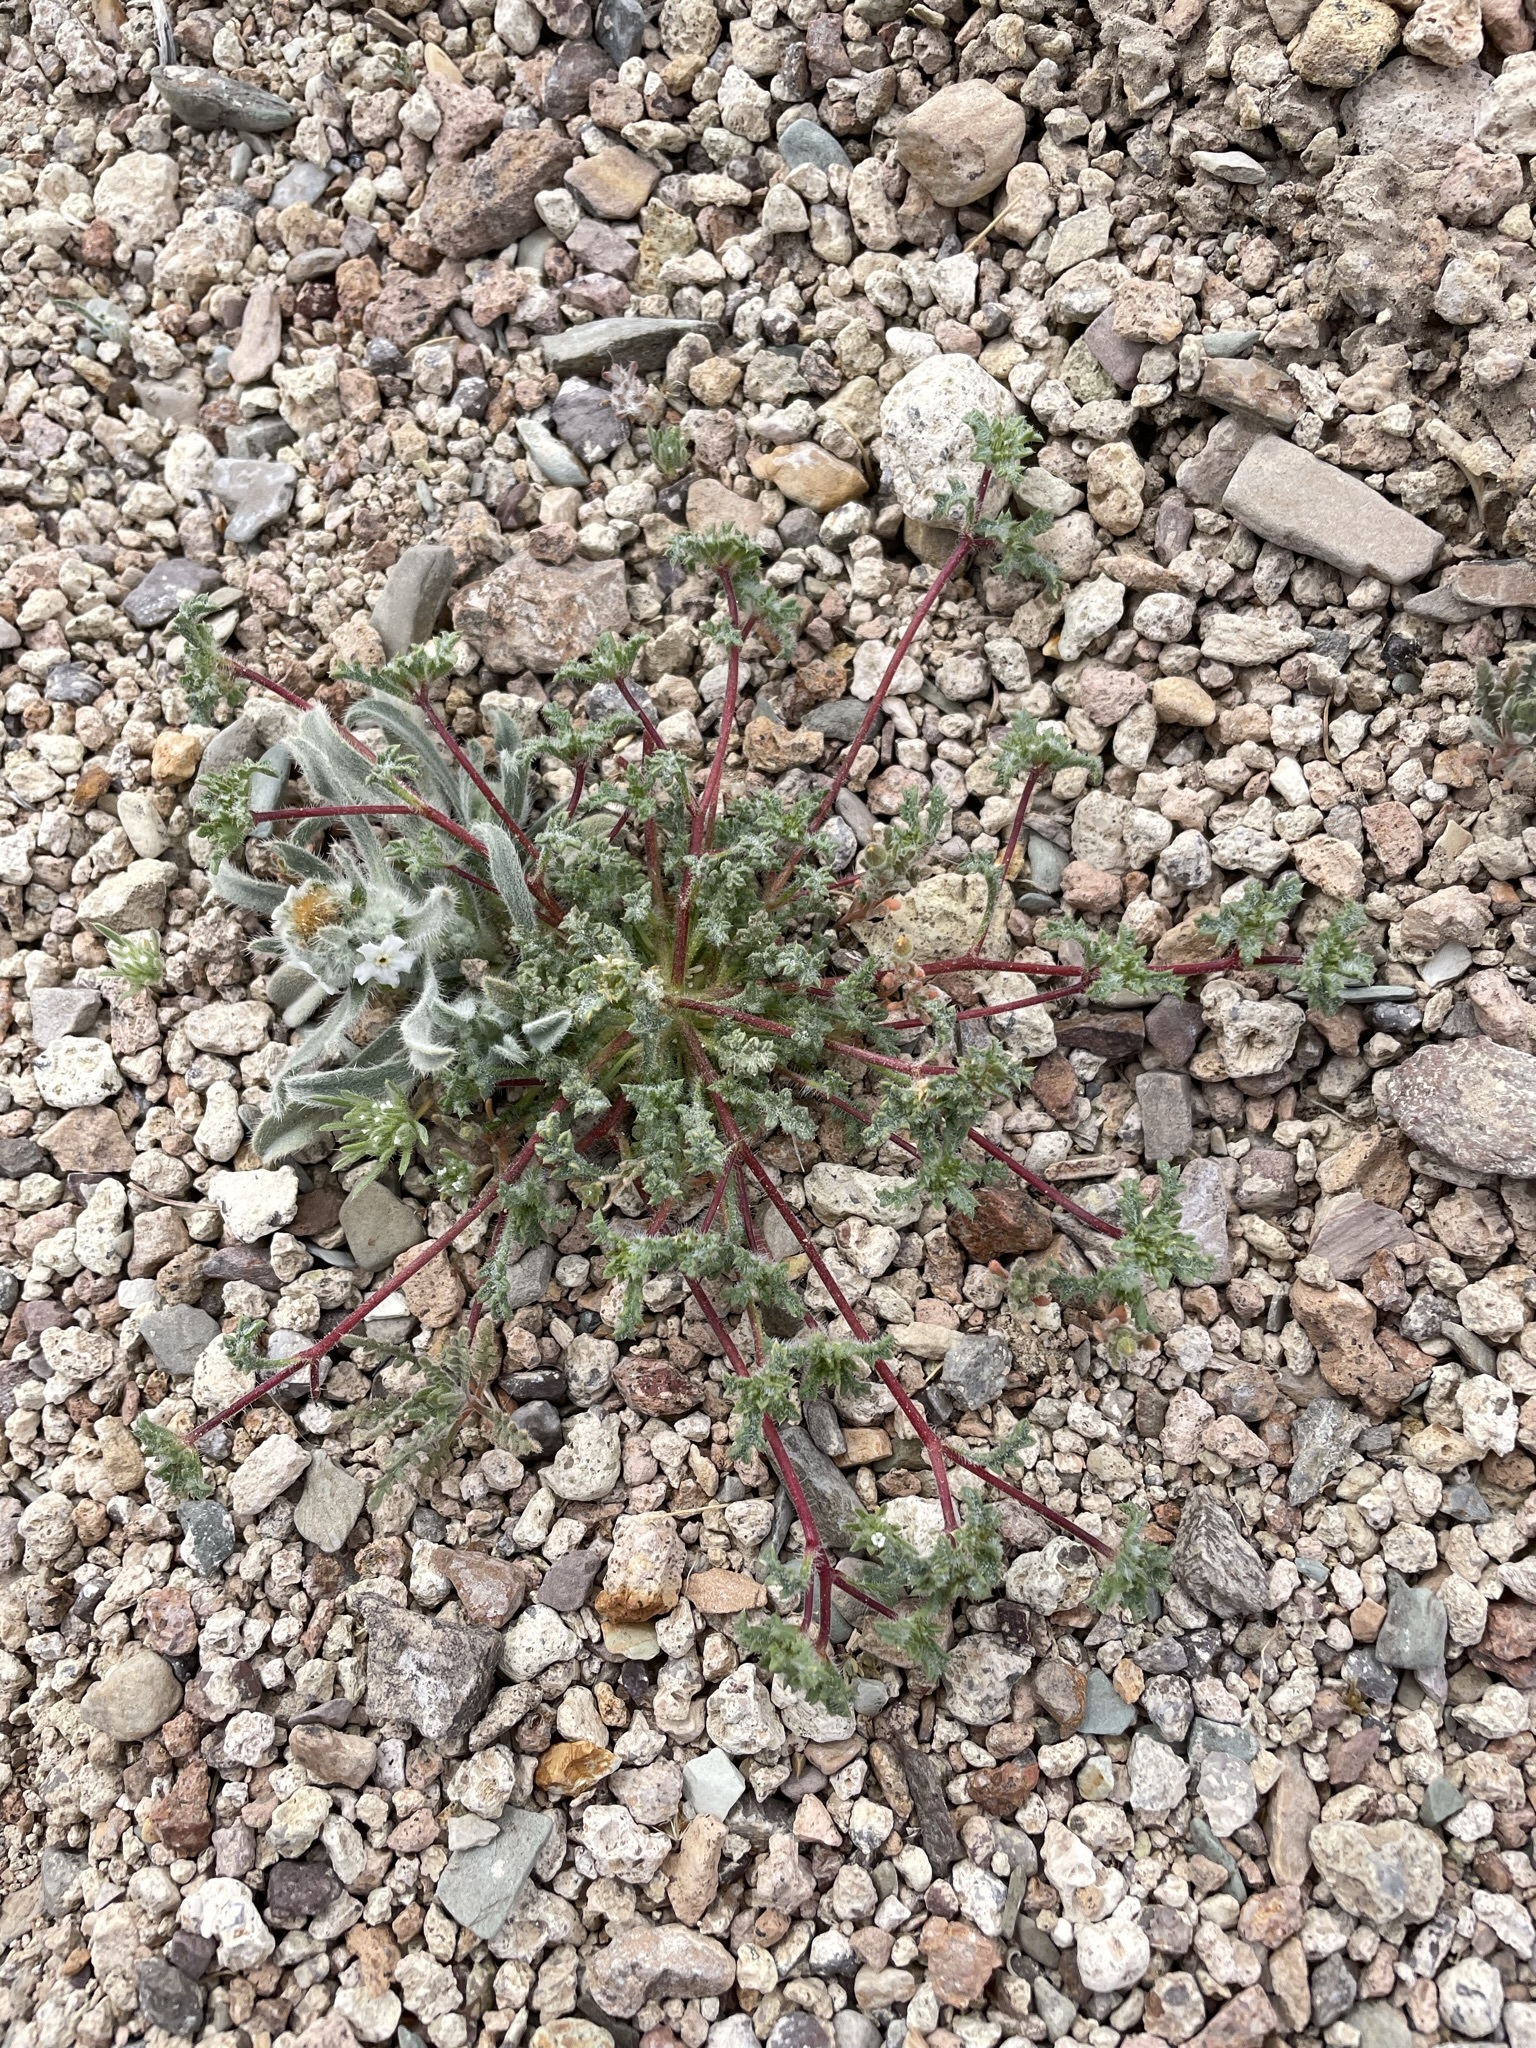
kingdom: Plantae
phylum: Tracheophyta
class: Magnoliopsida
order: Ericales
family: Polemoniaceae
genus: Ipomopsis
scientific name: Ipomopsis polycladon
